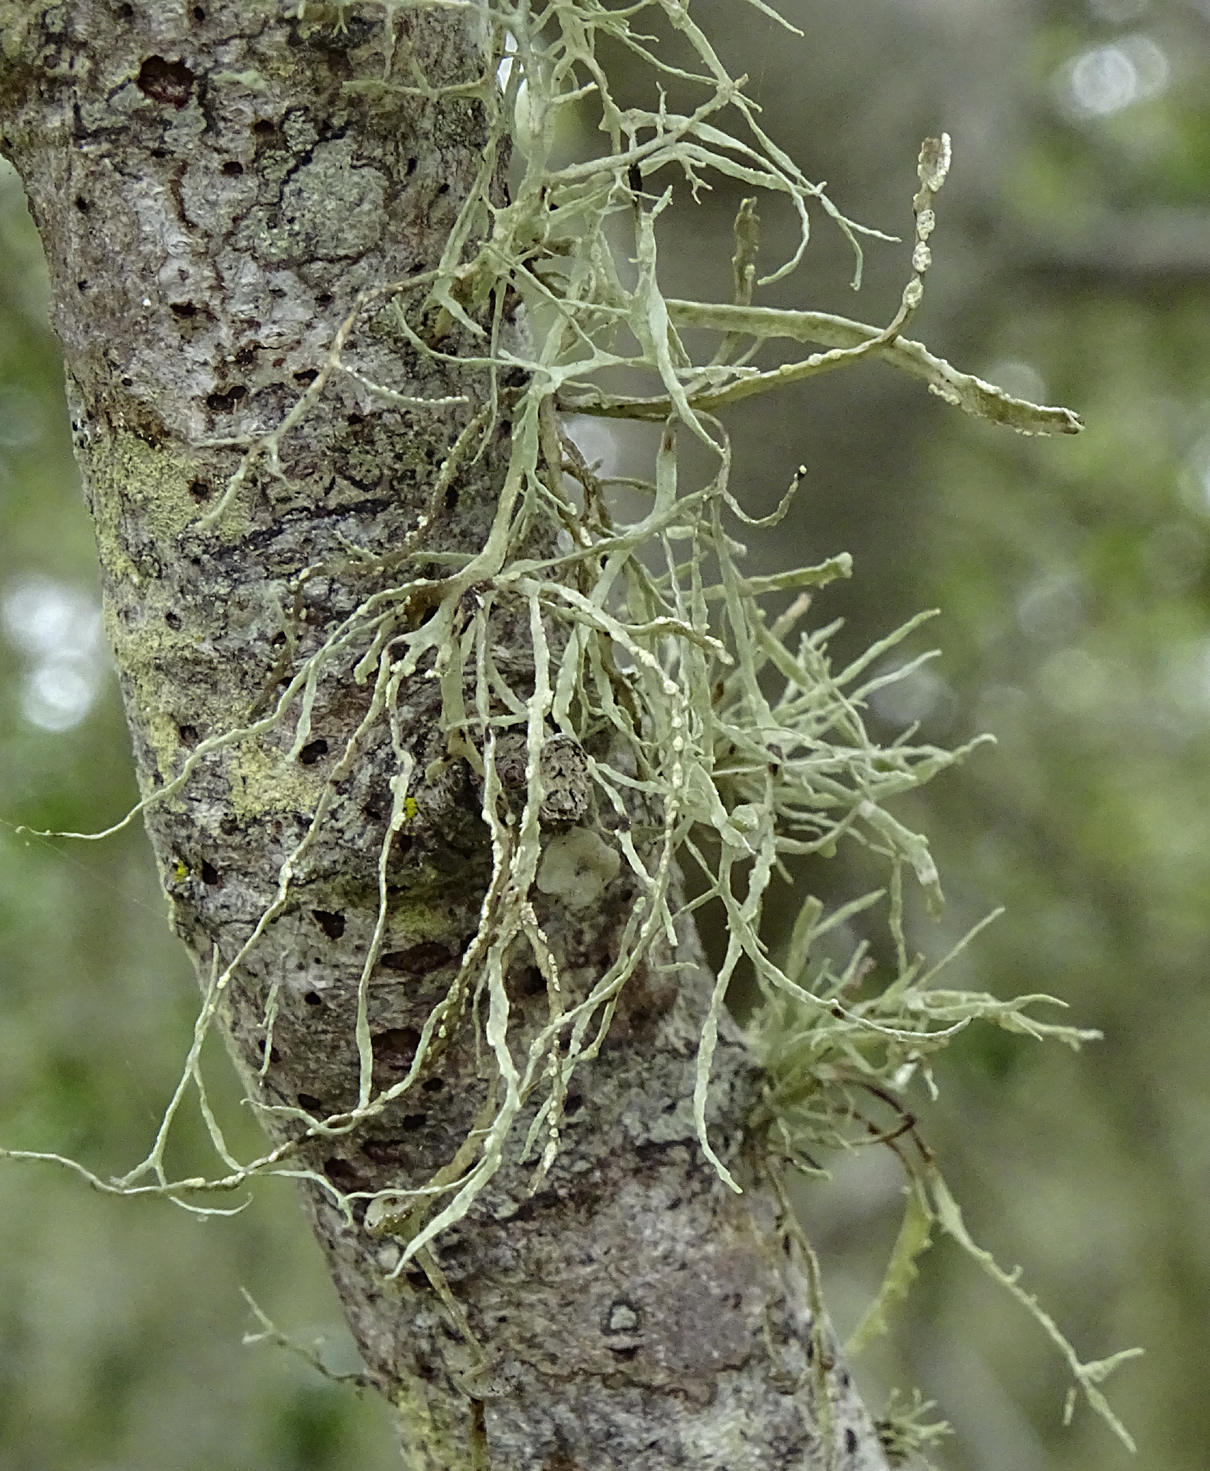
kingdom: Fungi
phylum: Ascomycota
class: Lecanoromycetes
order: Lecanorales
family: Ramalinaceae
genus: Ramalina
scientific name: Ramalina farinacea
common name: Farinose cartilage lichen
